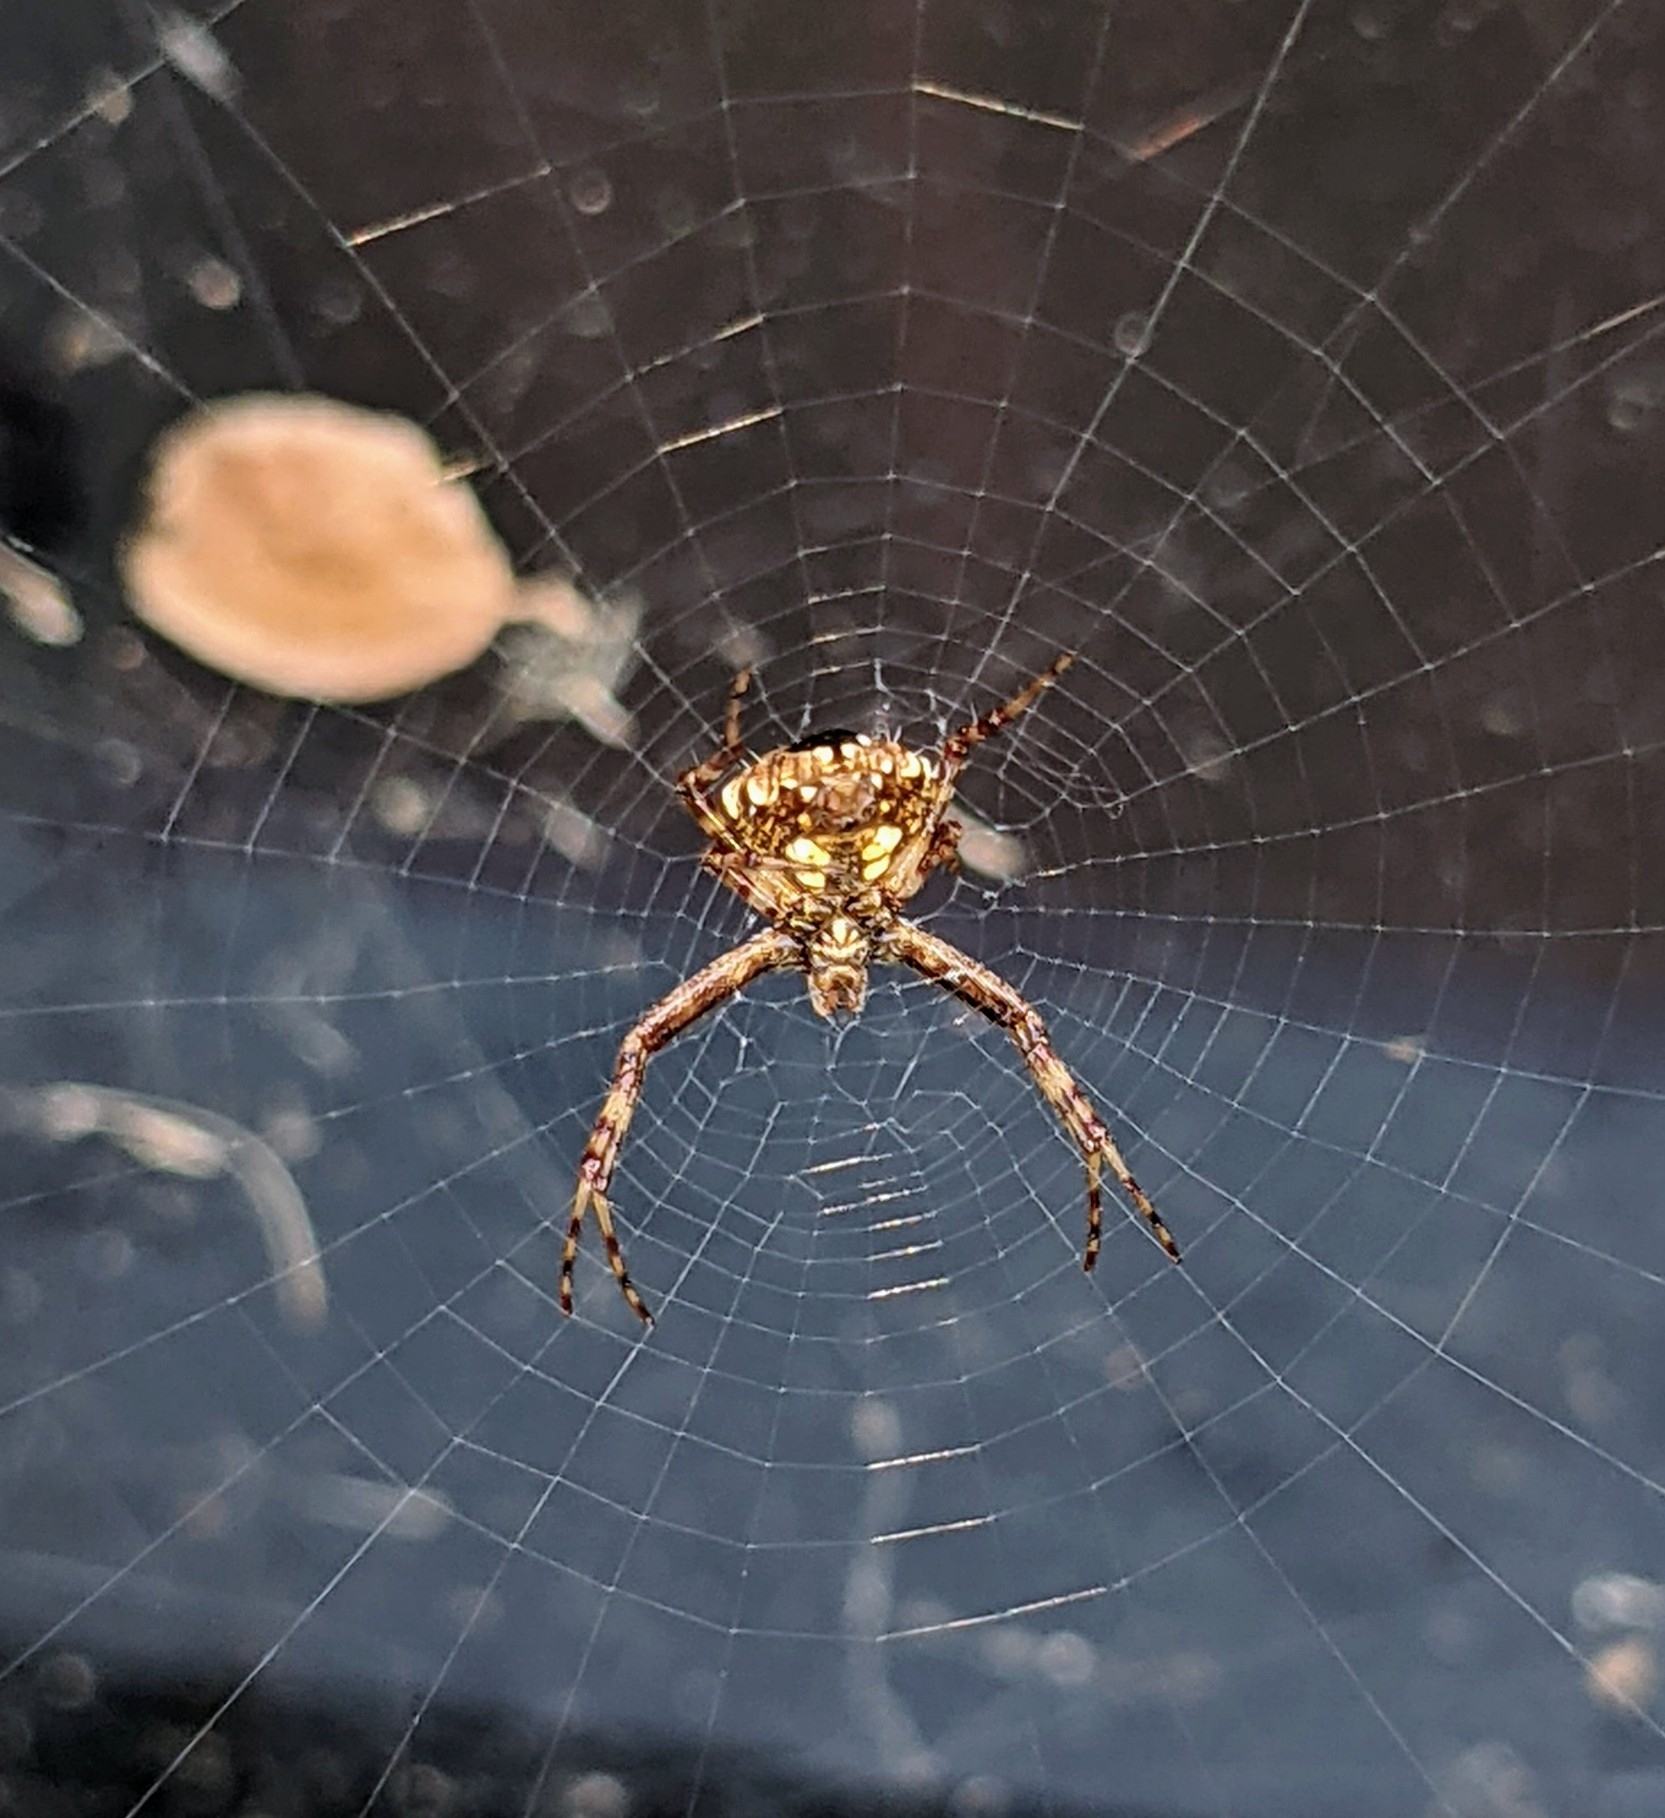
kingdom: Animalia
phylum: Arthropoda
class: Arachnida
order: Araneae
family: Araneidae
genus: Gea
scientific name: Gea heptagon
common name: Orb weavers
